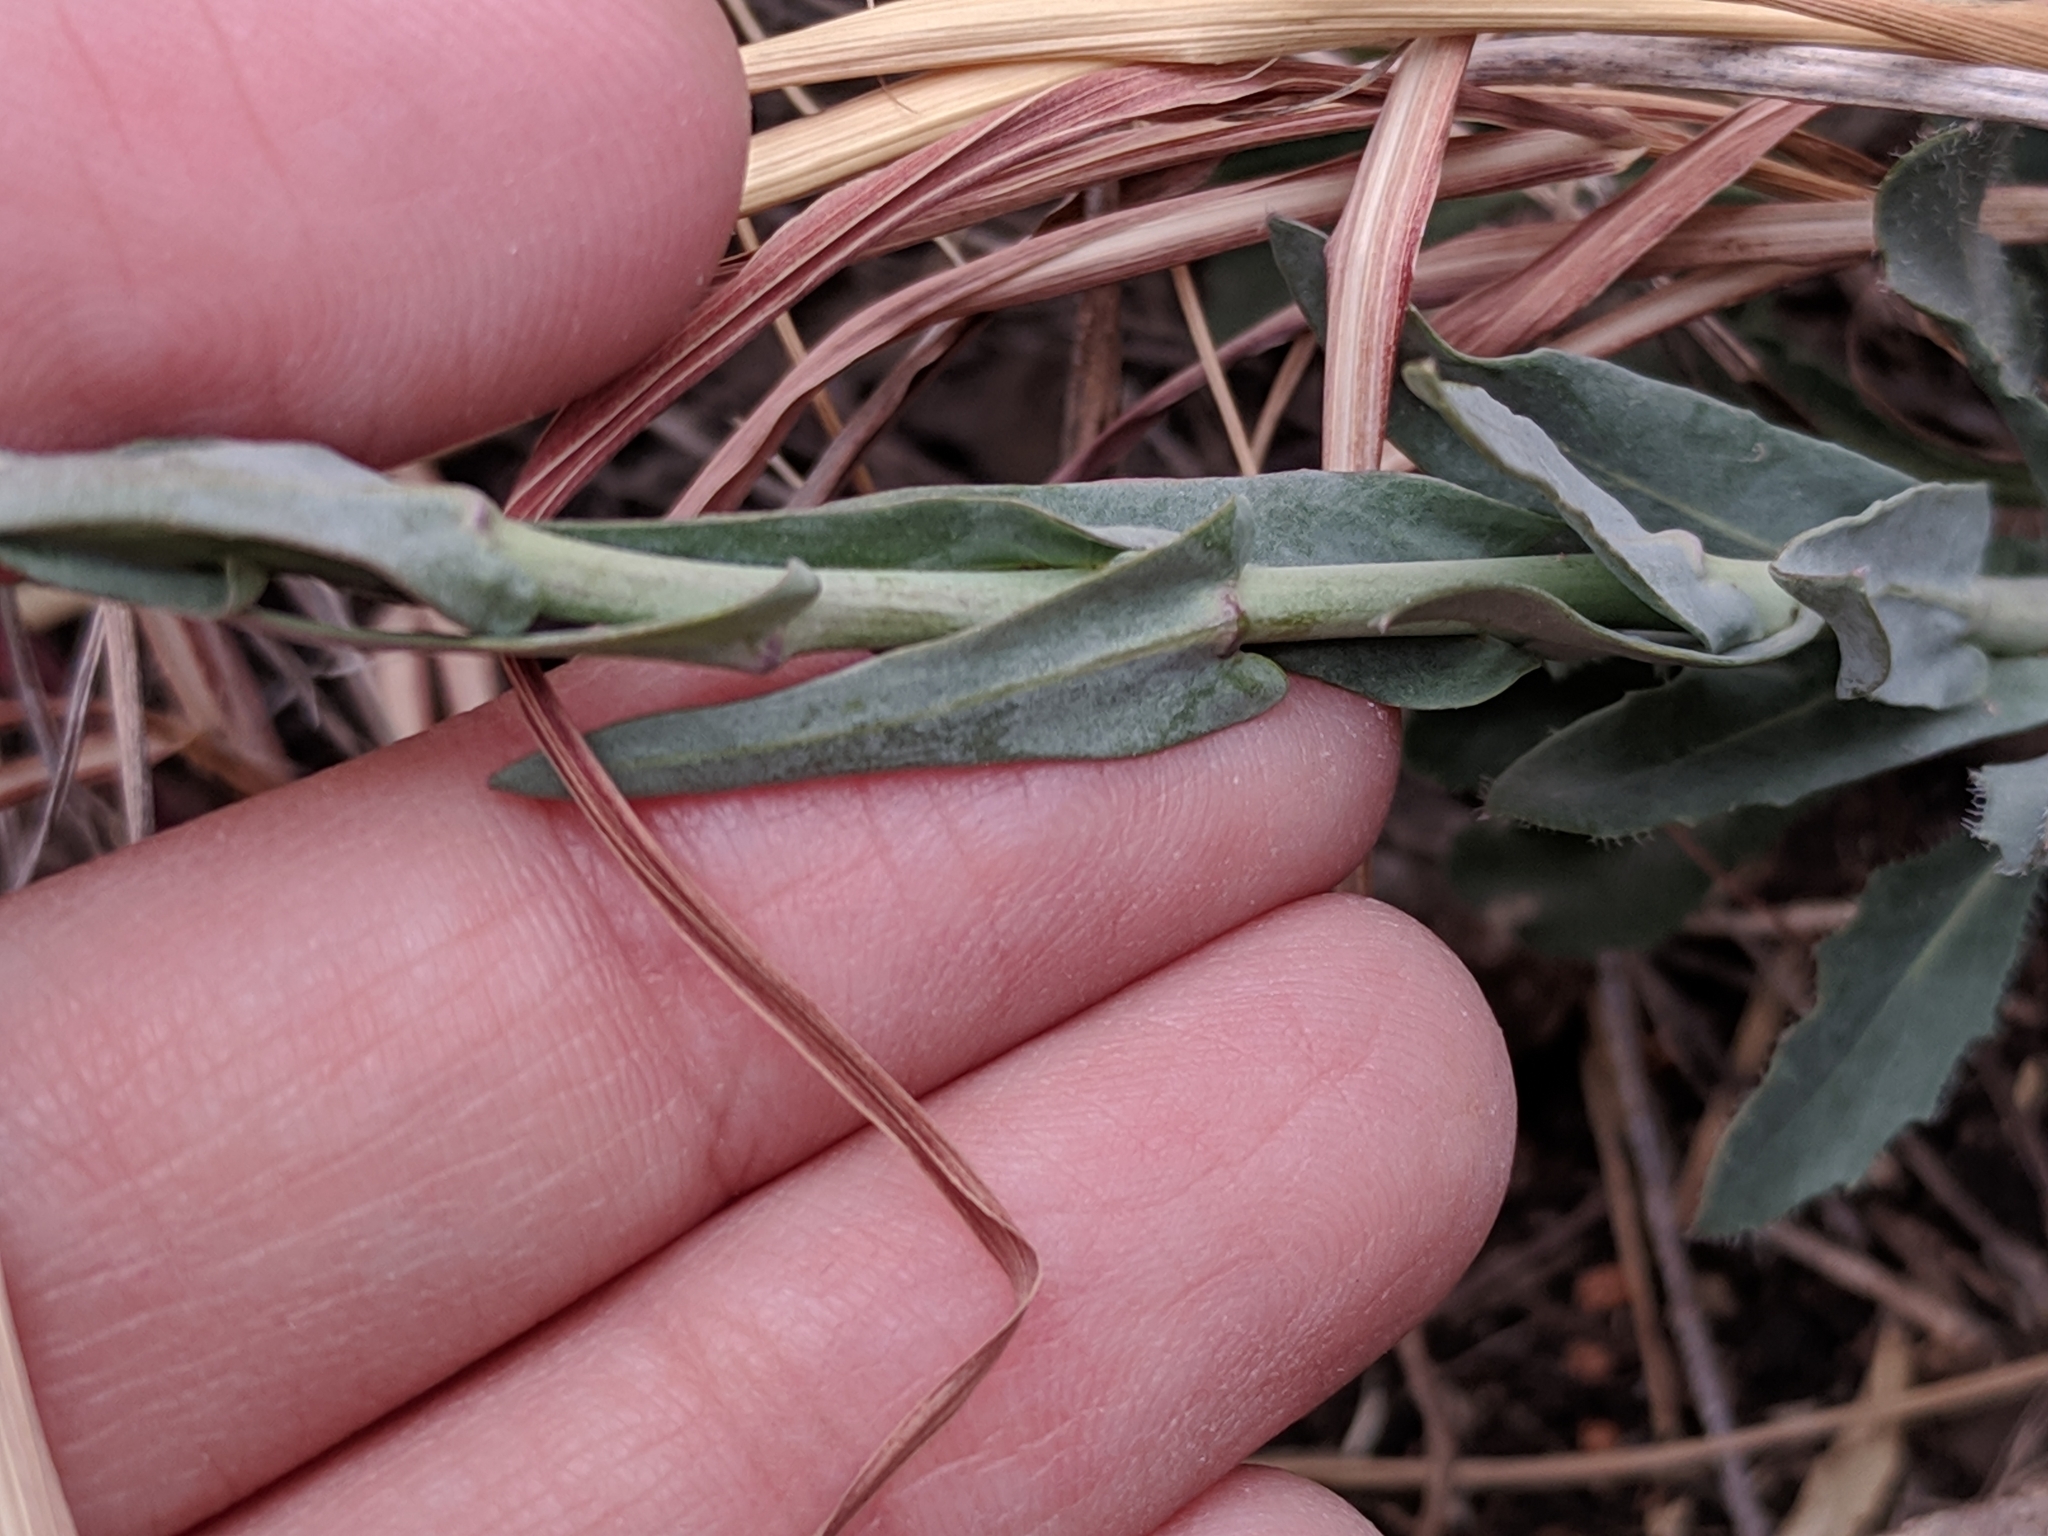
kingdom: Plantae
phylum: Tracheophyta
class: Magnoliopsida
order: Brassicales
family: Brassicaceae
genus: Boechera
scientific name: Boechera texana
